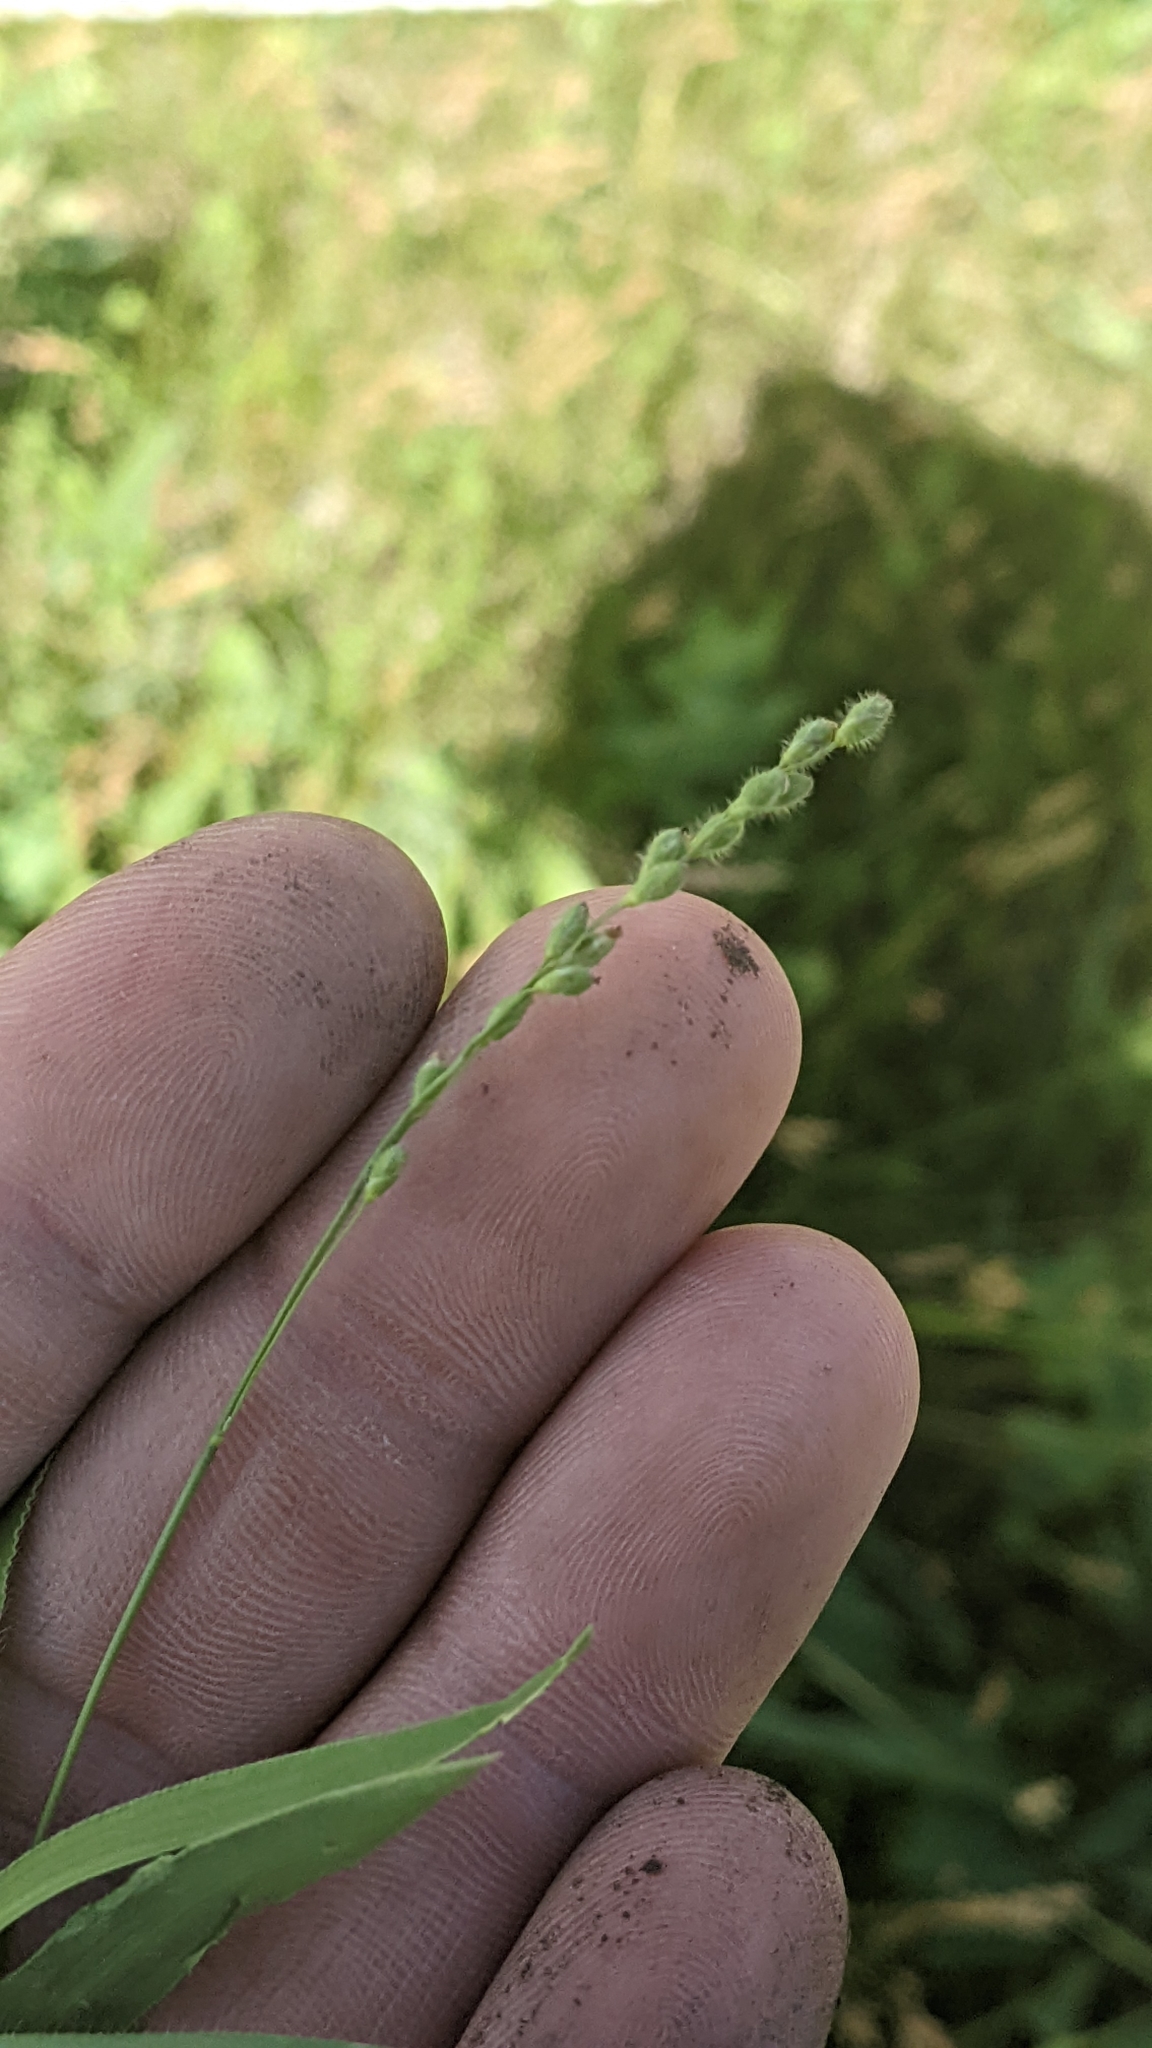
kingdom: Plantae
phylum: Tracheophyta
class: Liliopsida
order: Poales
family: Poaceae
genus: Dichanthelium
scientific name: Dichanthelium leibergii
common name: Leiberg's panic grass
